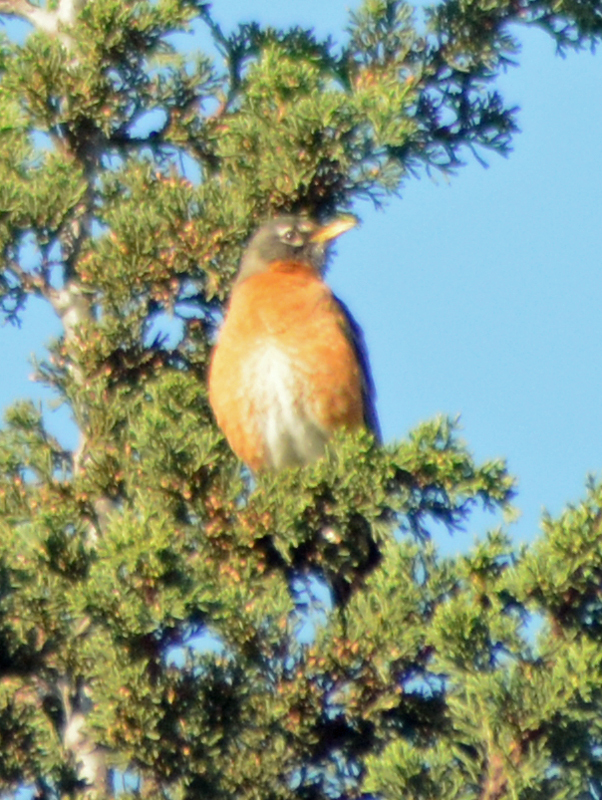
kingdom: Animalia
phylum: Chordata
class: Aves
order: Passeriformes
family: Turdidae
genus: Turdus
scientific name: Turdus migratorius
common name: American robin
